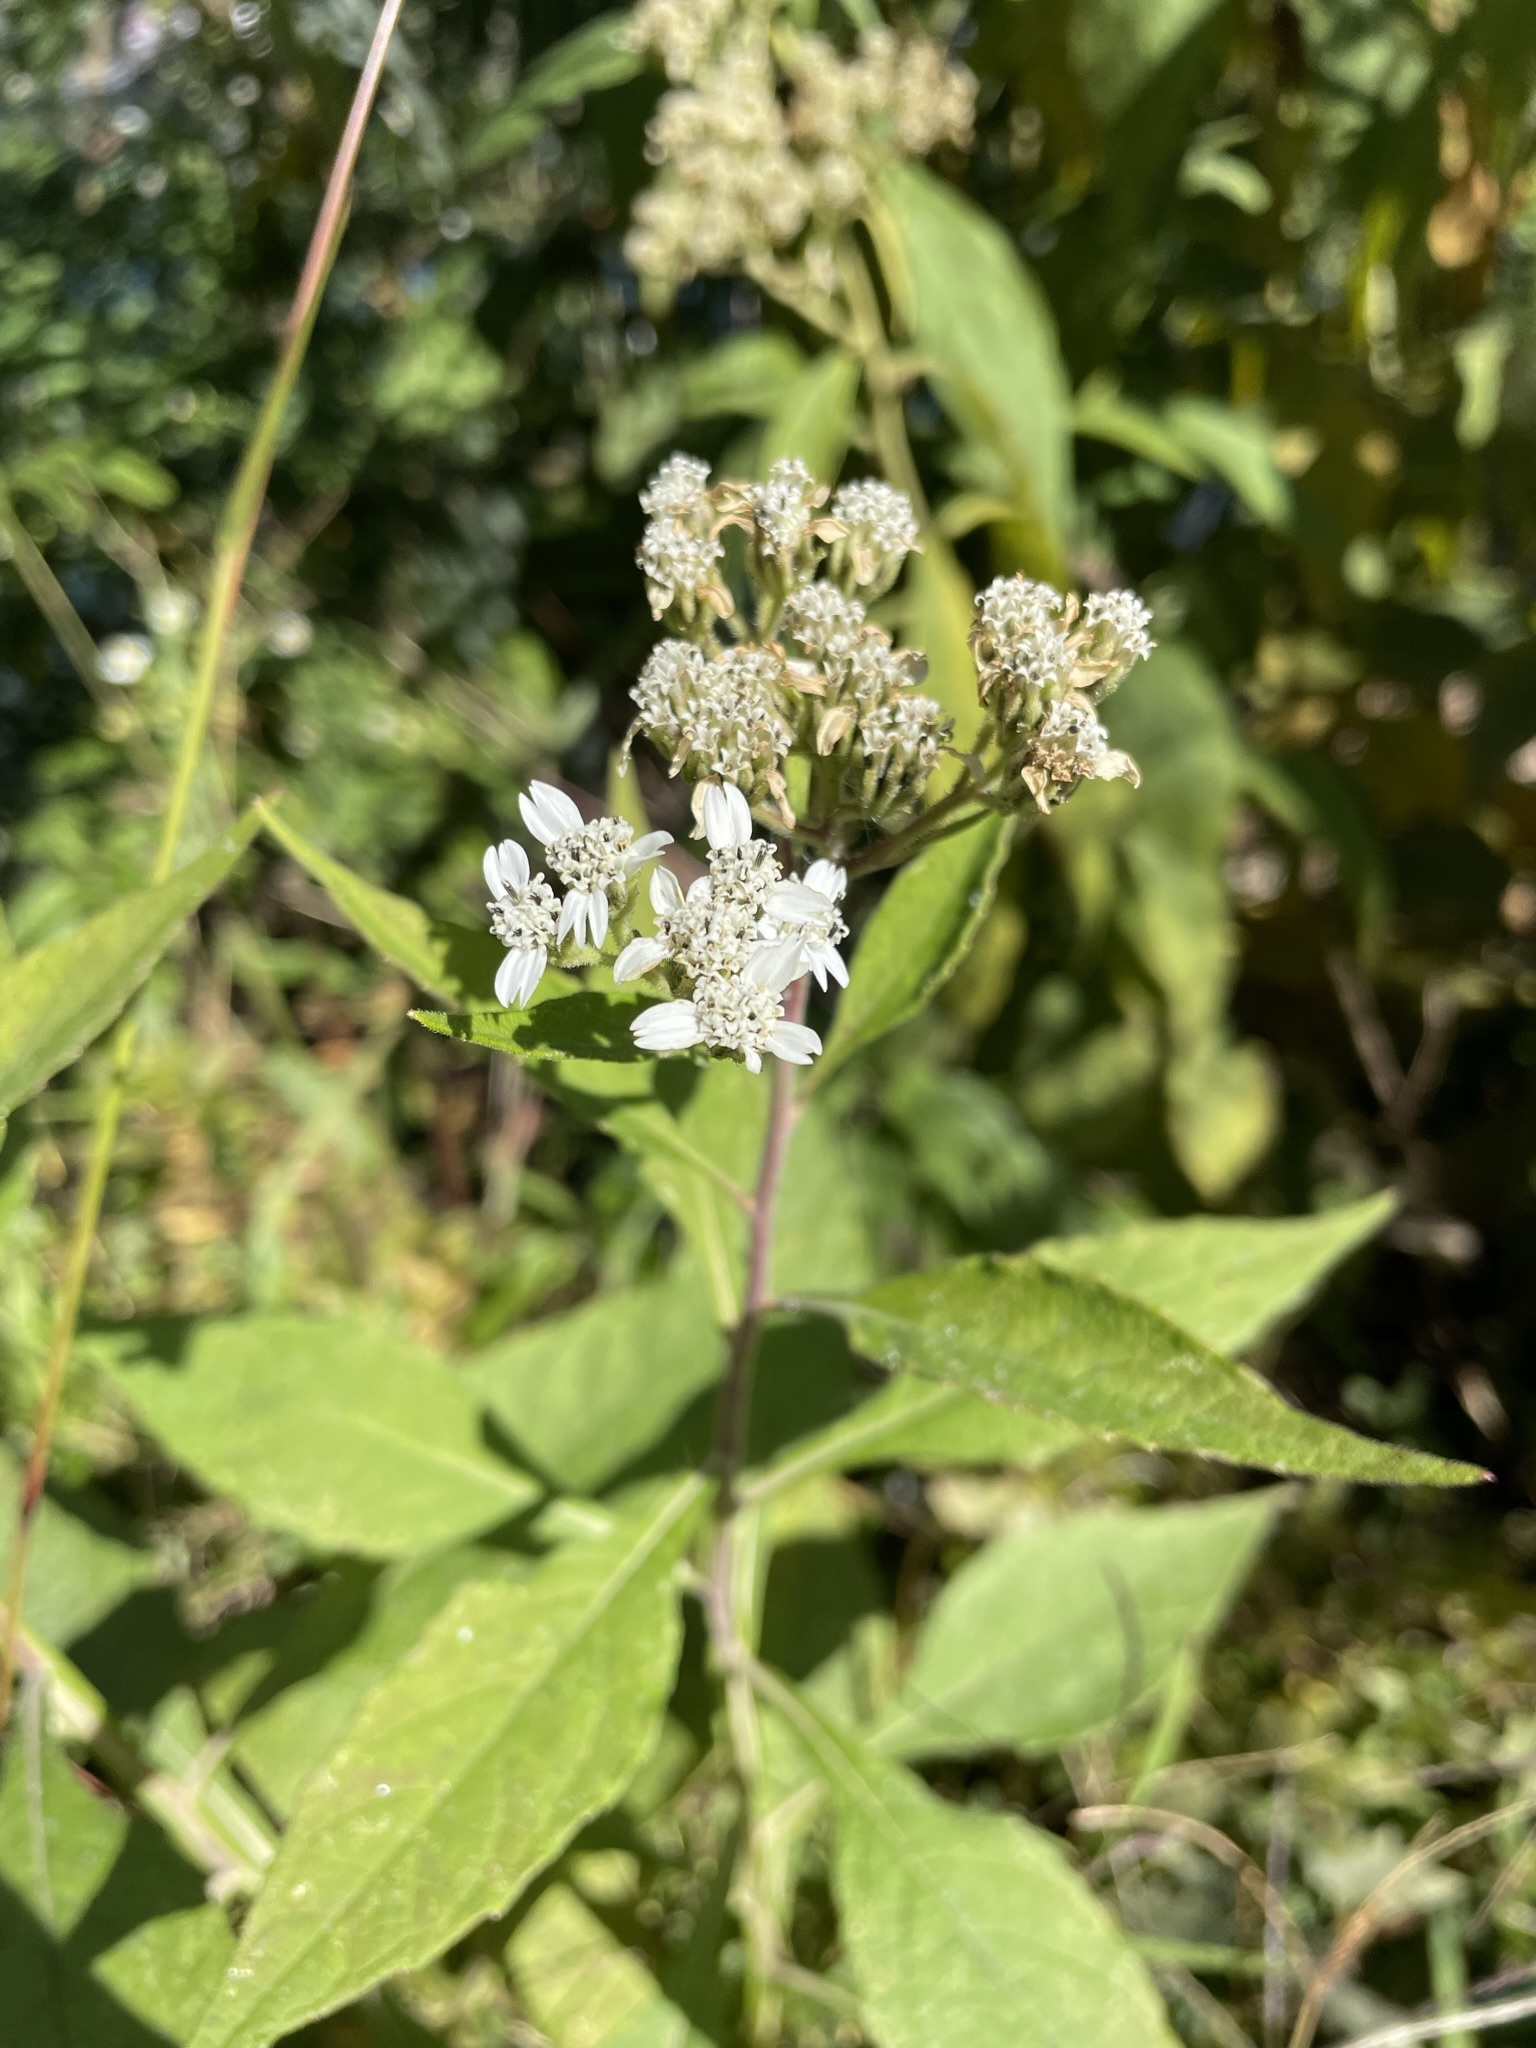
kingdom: Plantae
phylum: Tracheophyta
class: Magnoliopsida
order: Asterales
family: Asteraceae
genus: Verbesina
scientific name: Verbesina virginica
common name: Frostweed
